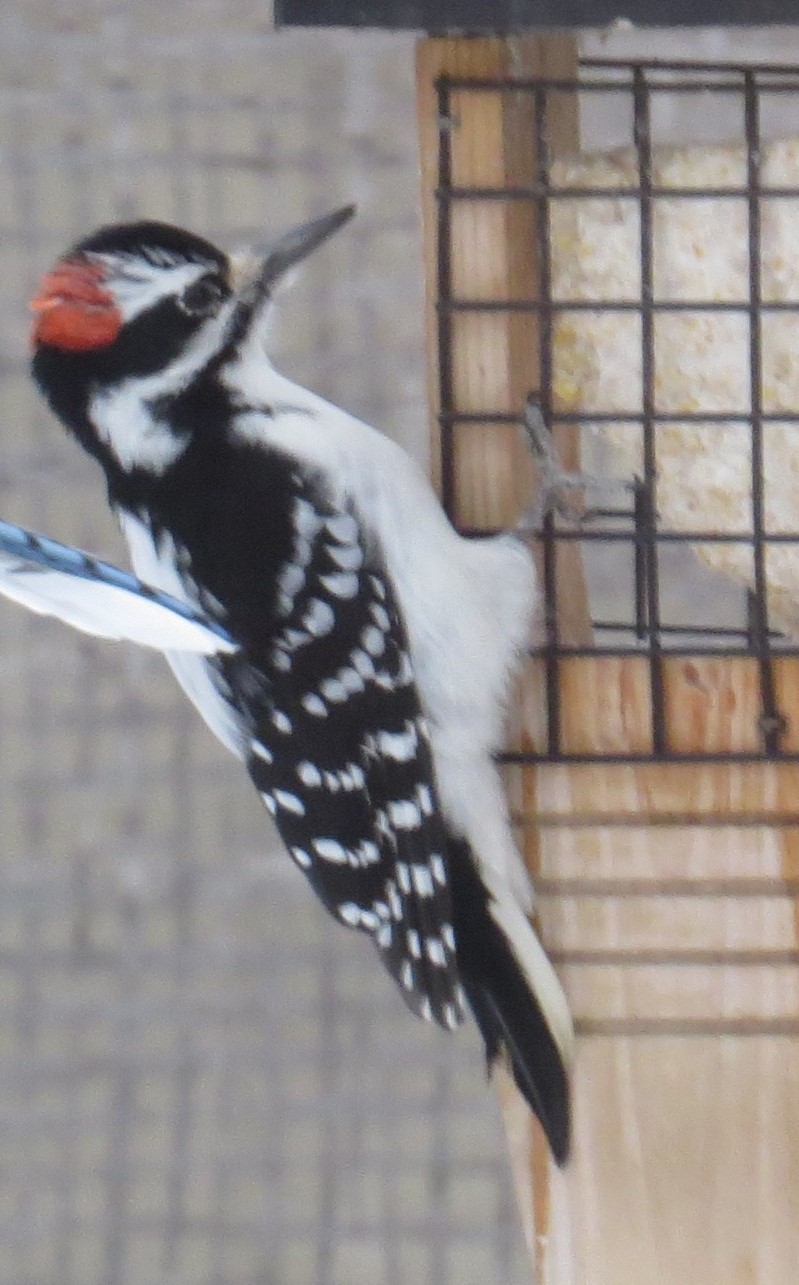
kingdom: Animalia
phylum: Chordata
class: Aves
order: Piciformes
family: Picidae
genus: Leuconotopicus
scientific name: Leuconotopicus villosus
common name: Hairy woodpecker
